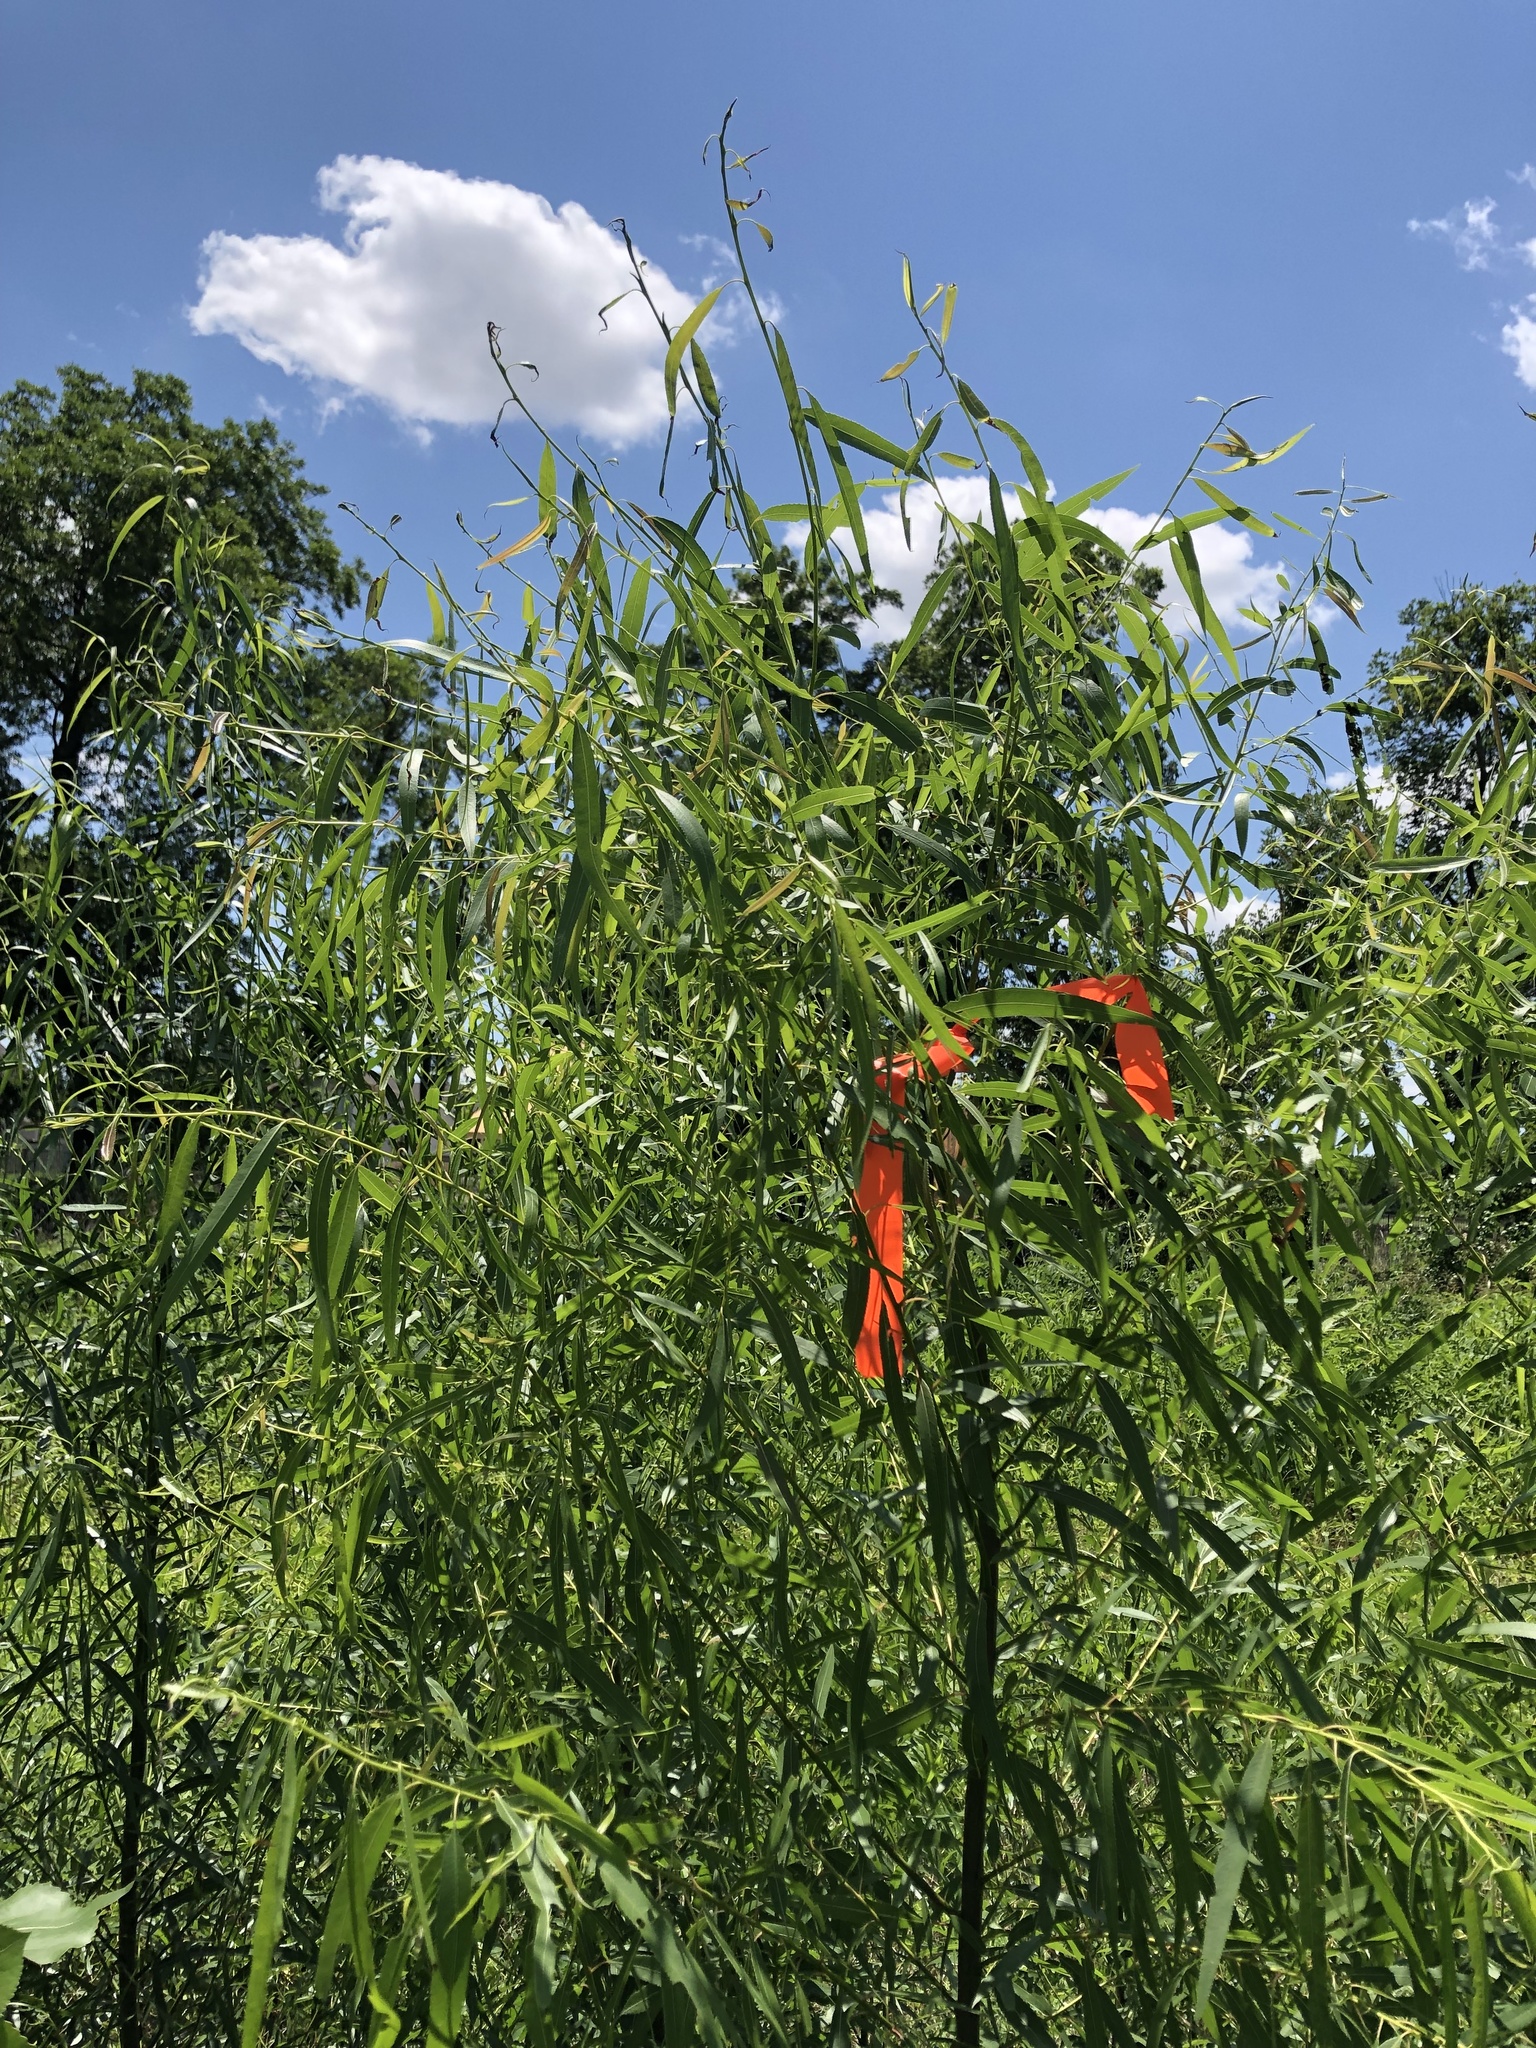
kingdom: Plantae
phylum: Tracheophyta
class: Magnoliopsida
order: Malpighiales
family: Salicaceae
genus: Salix
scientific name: Salix nigra
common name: Black willow
